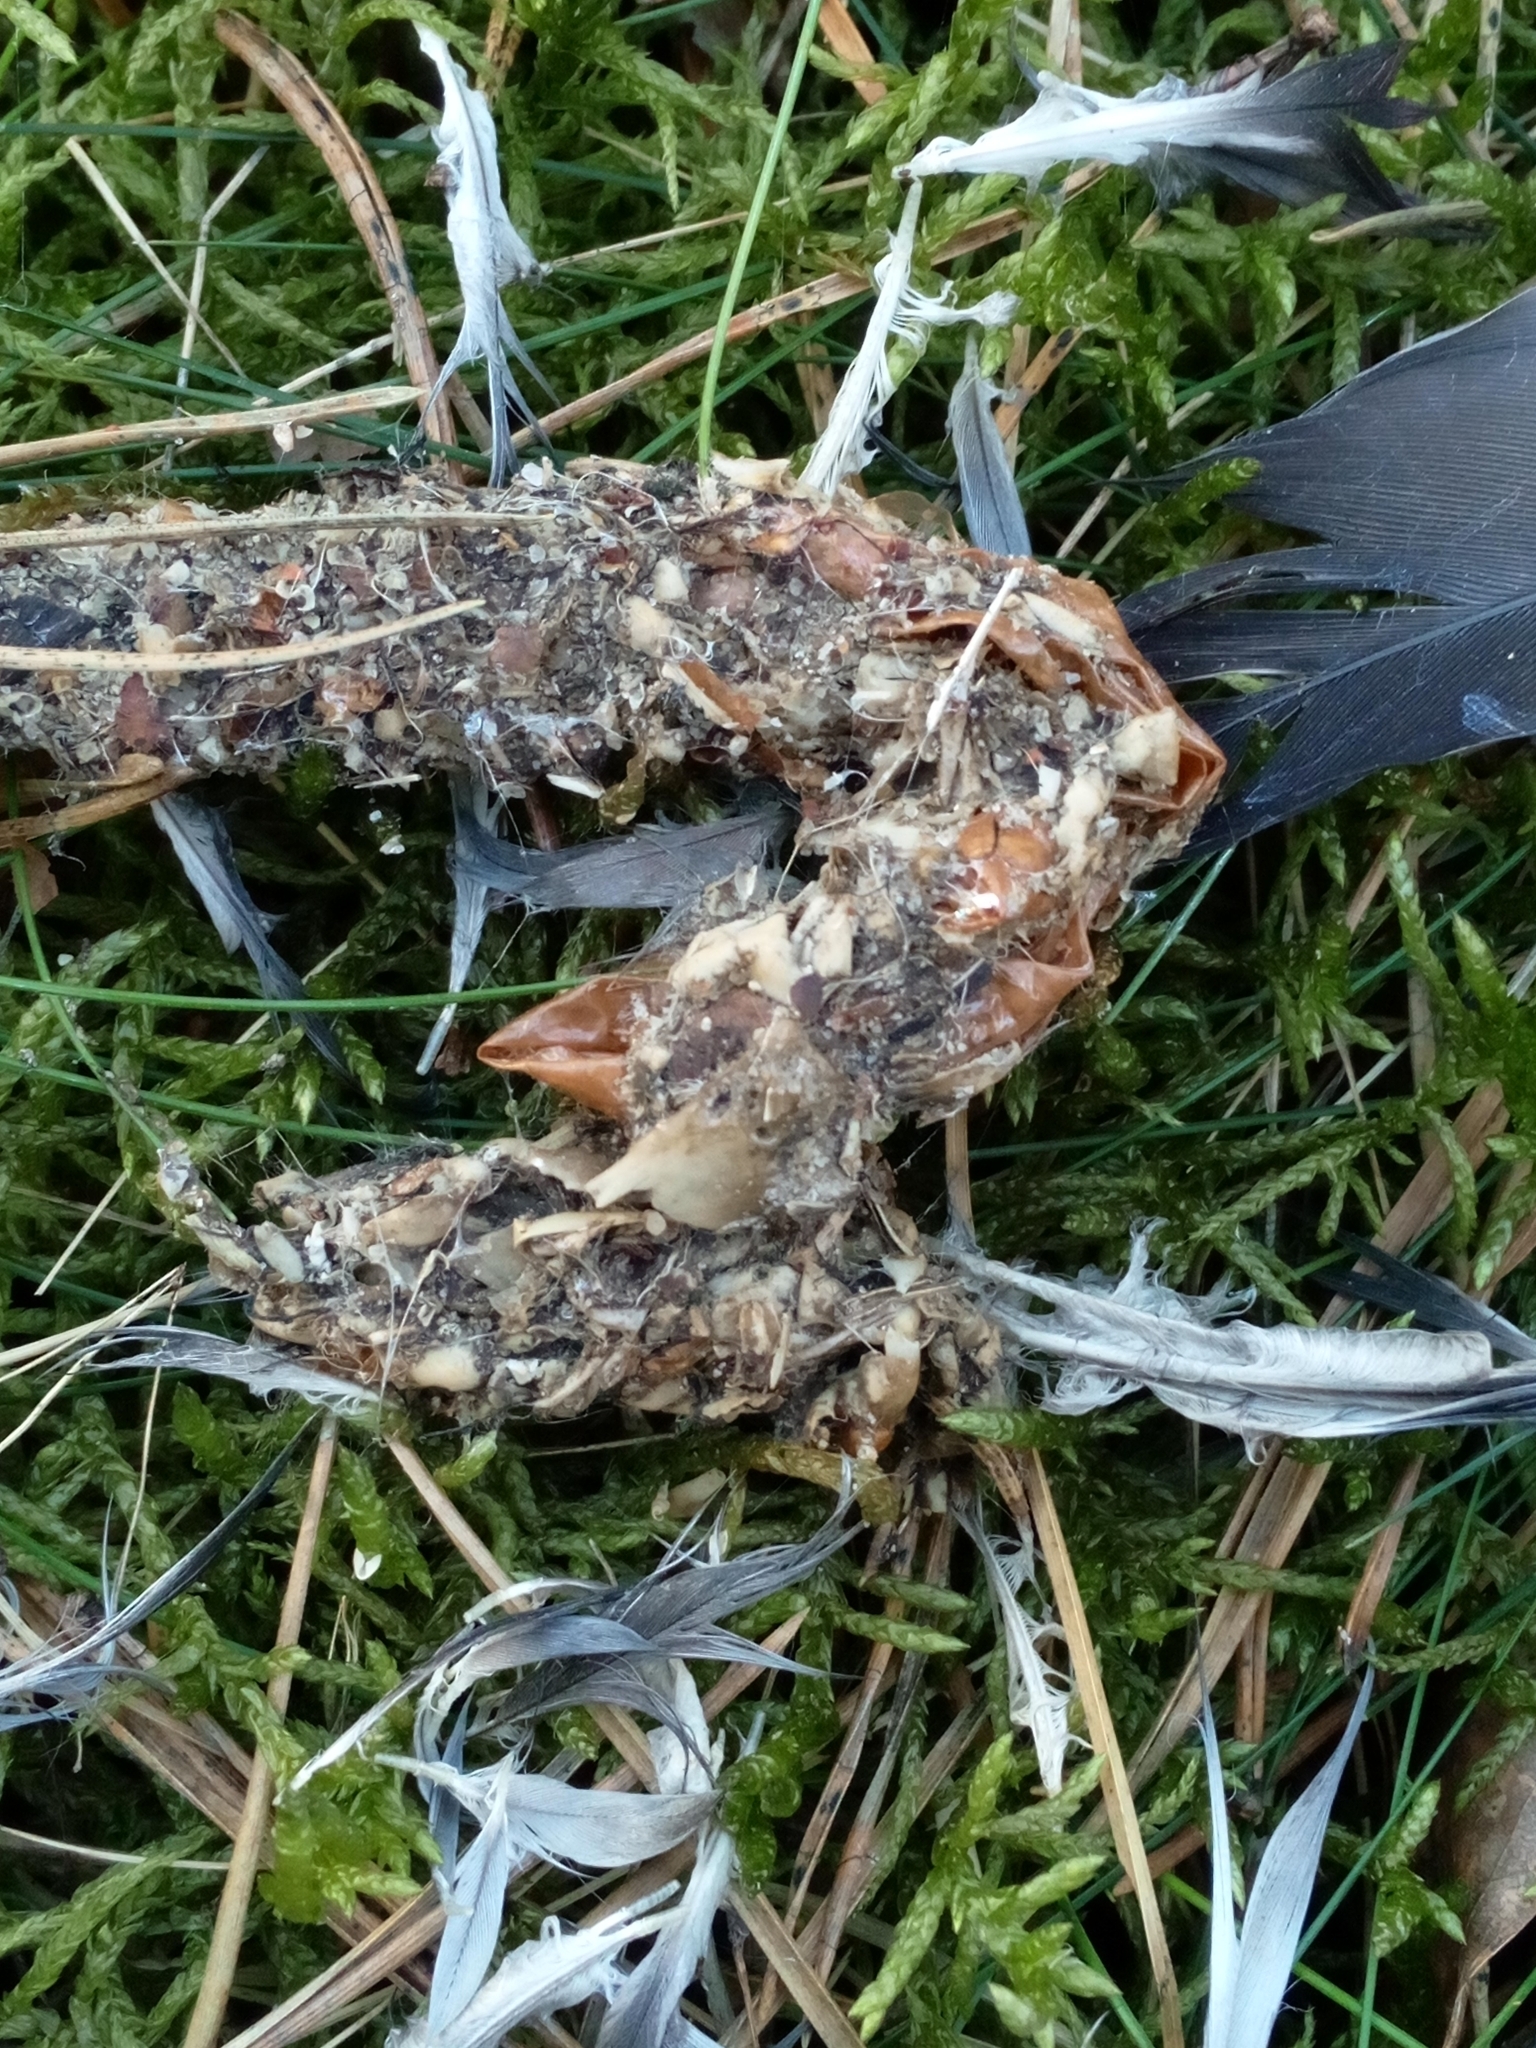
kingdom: Animalia
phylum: Chordata
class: Aves
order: Columbiformes
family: Columbidae
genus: Columba
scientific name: Columba livia
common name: Rock pigeon
